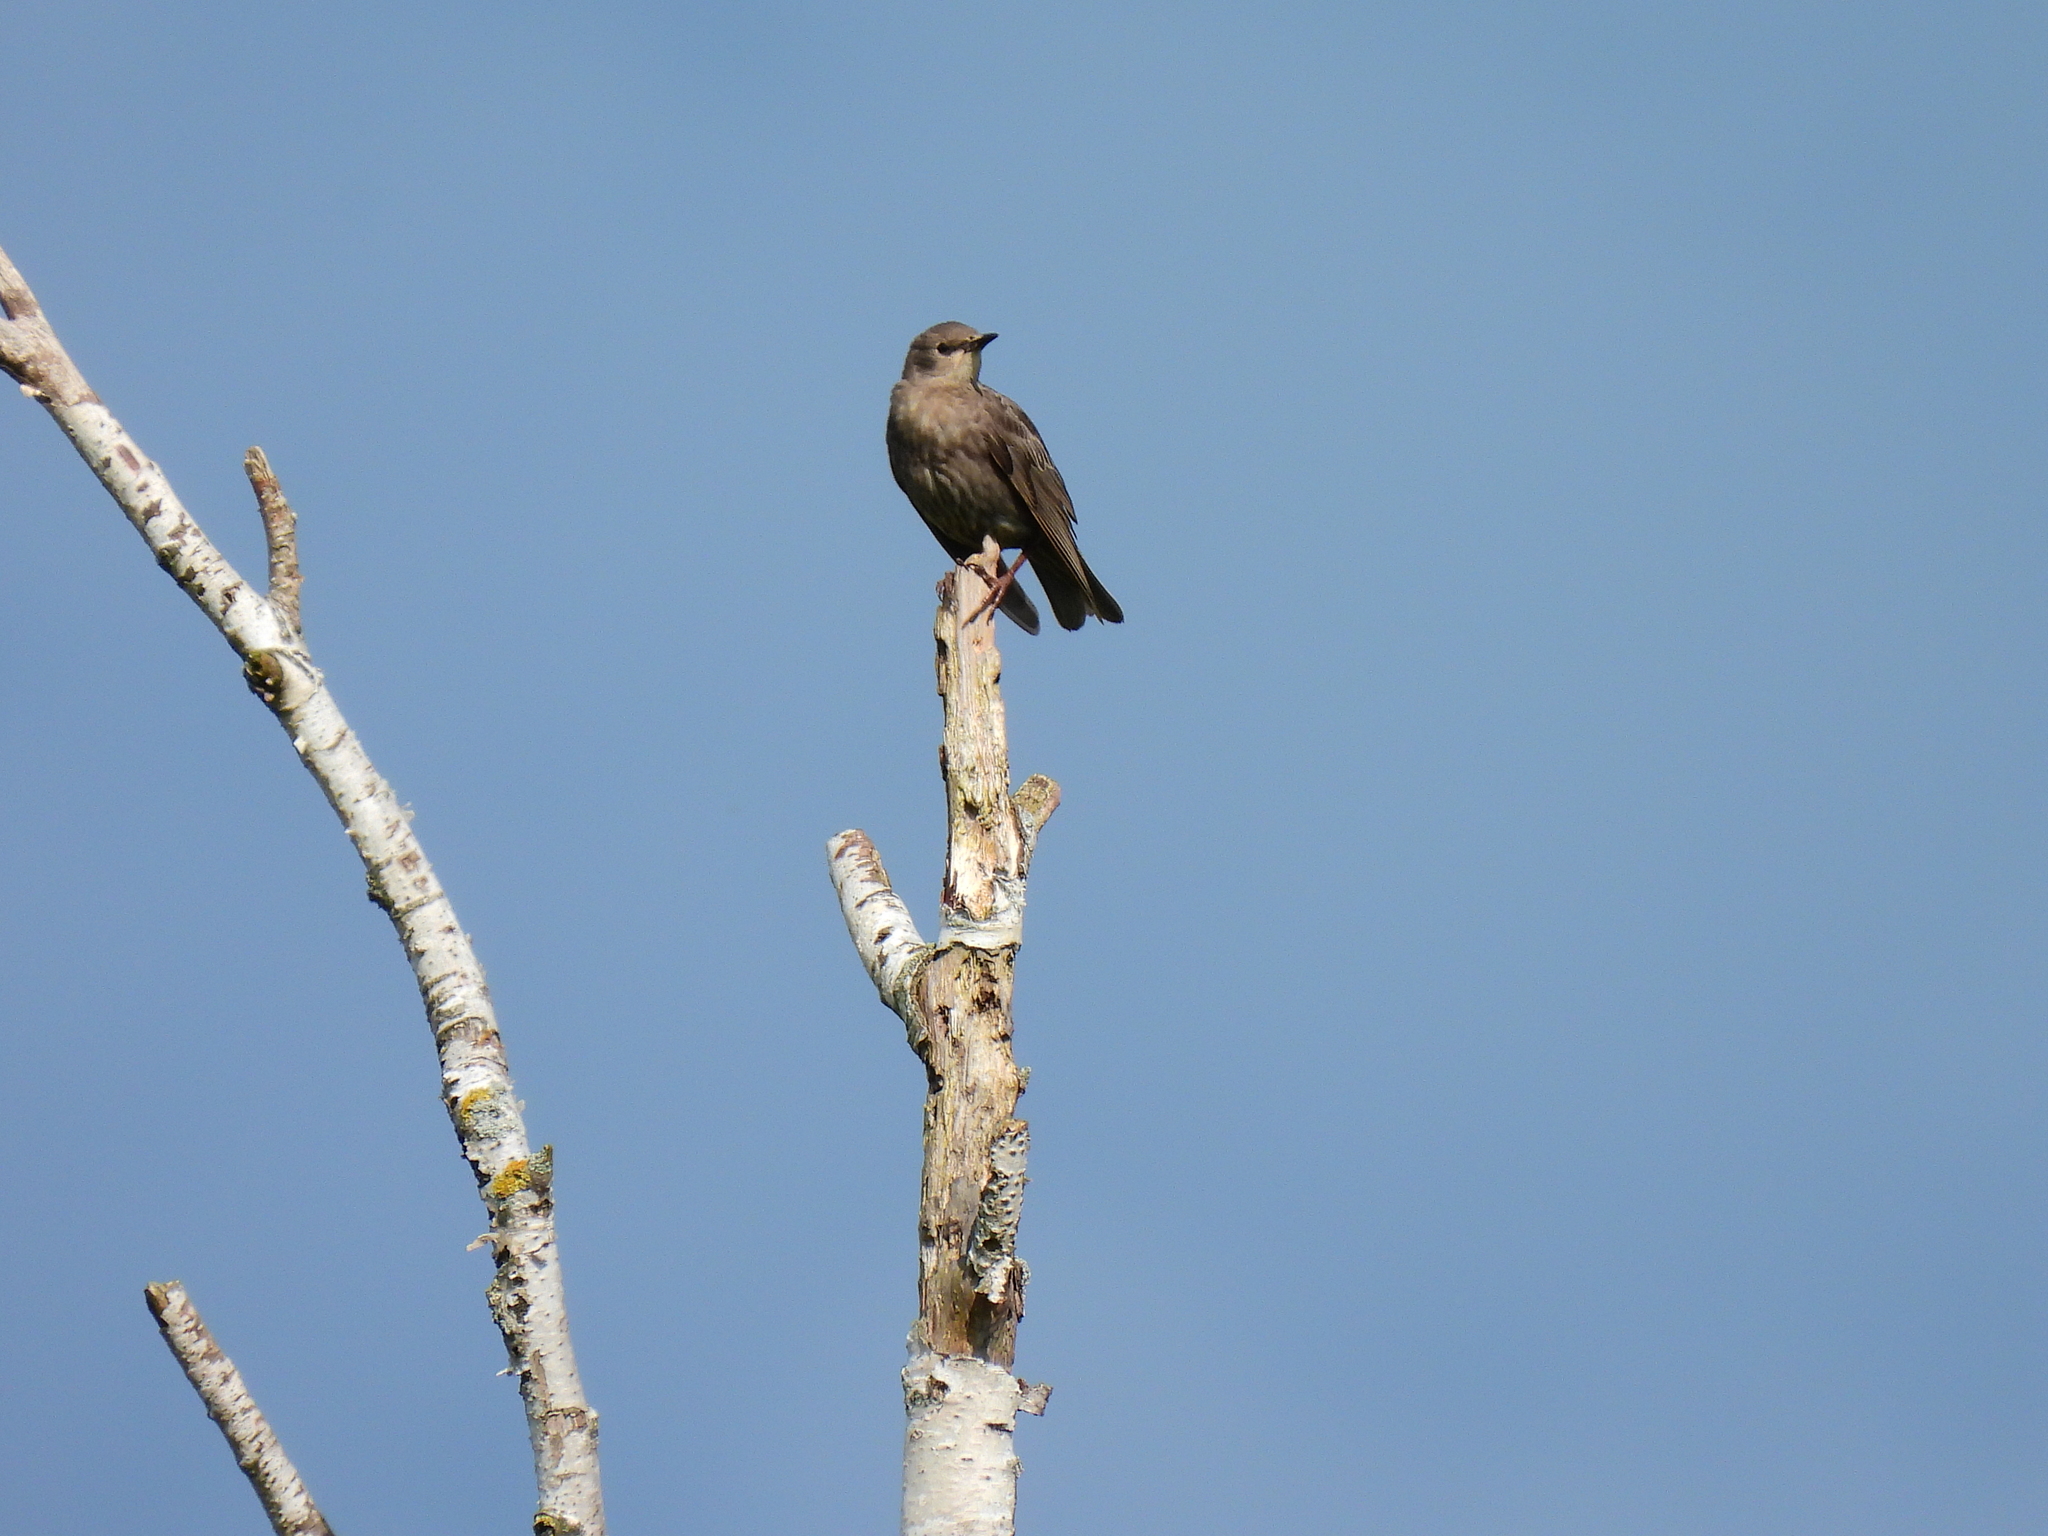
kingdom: Animalia
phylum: Chordata
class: Aves
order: Passeriformes
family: Sturnidae
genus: Sturnus
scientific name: Sturnus vulgaris
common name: Common starling
